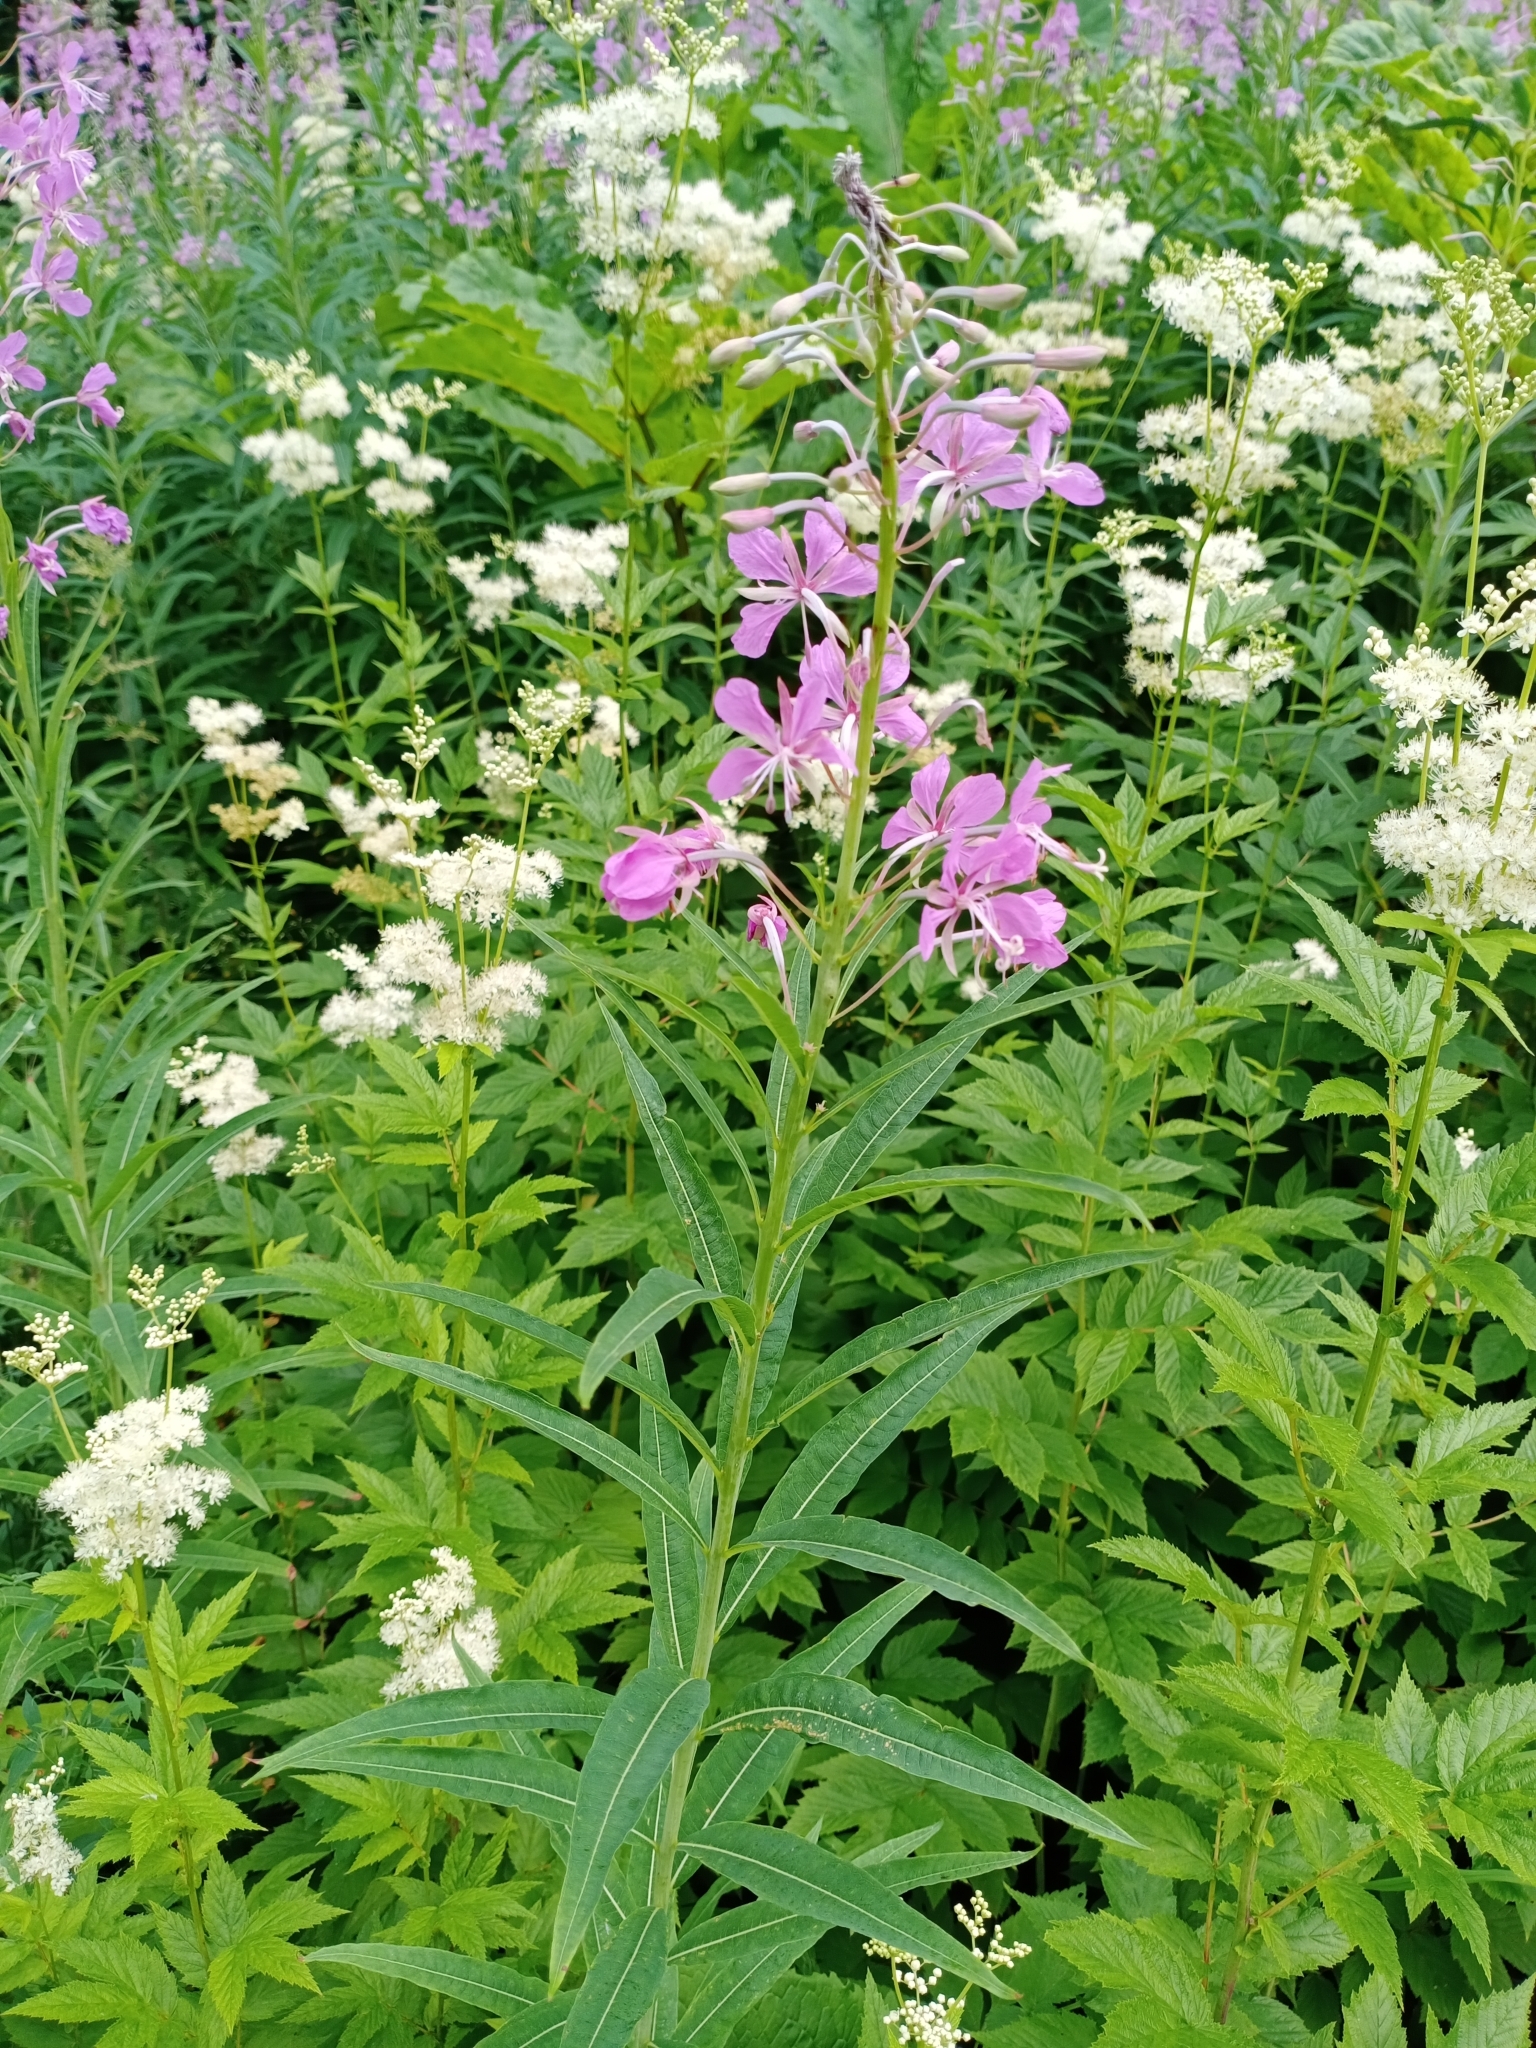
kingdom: Plantae
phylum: Tracheophyta
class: Magnoliopsida
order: Myrtales
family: Onagraceae
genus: Chamaenerion
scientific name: Chamaenerion angustifolium
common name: Fireweed
